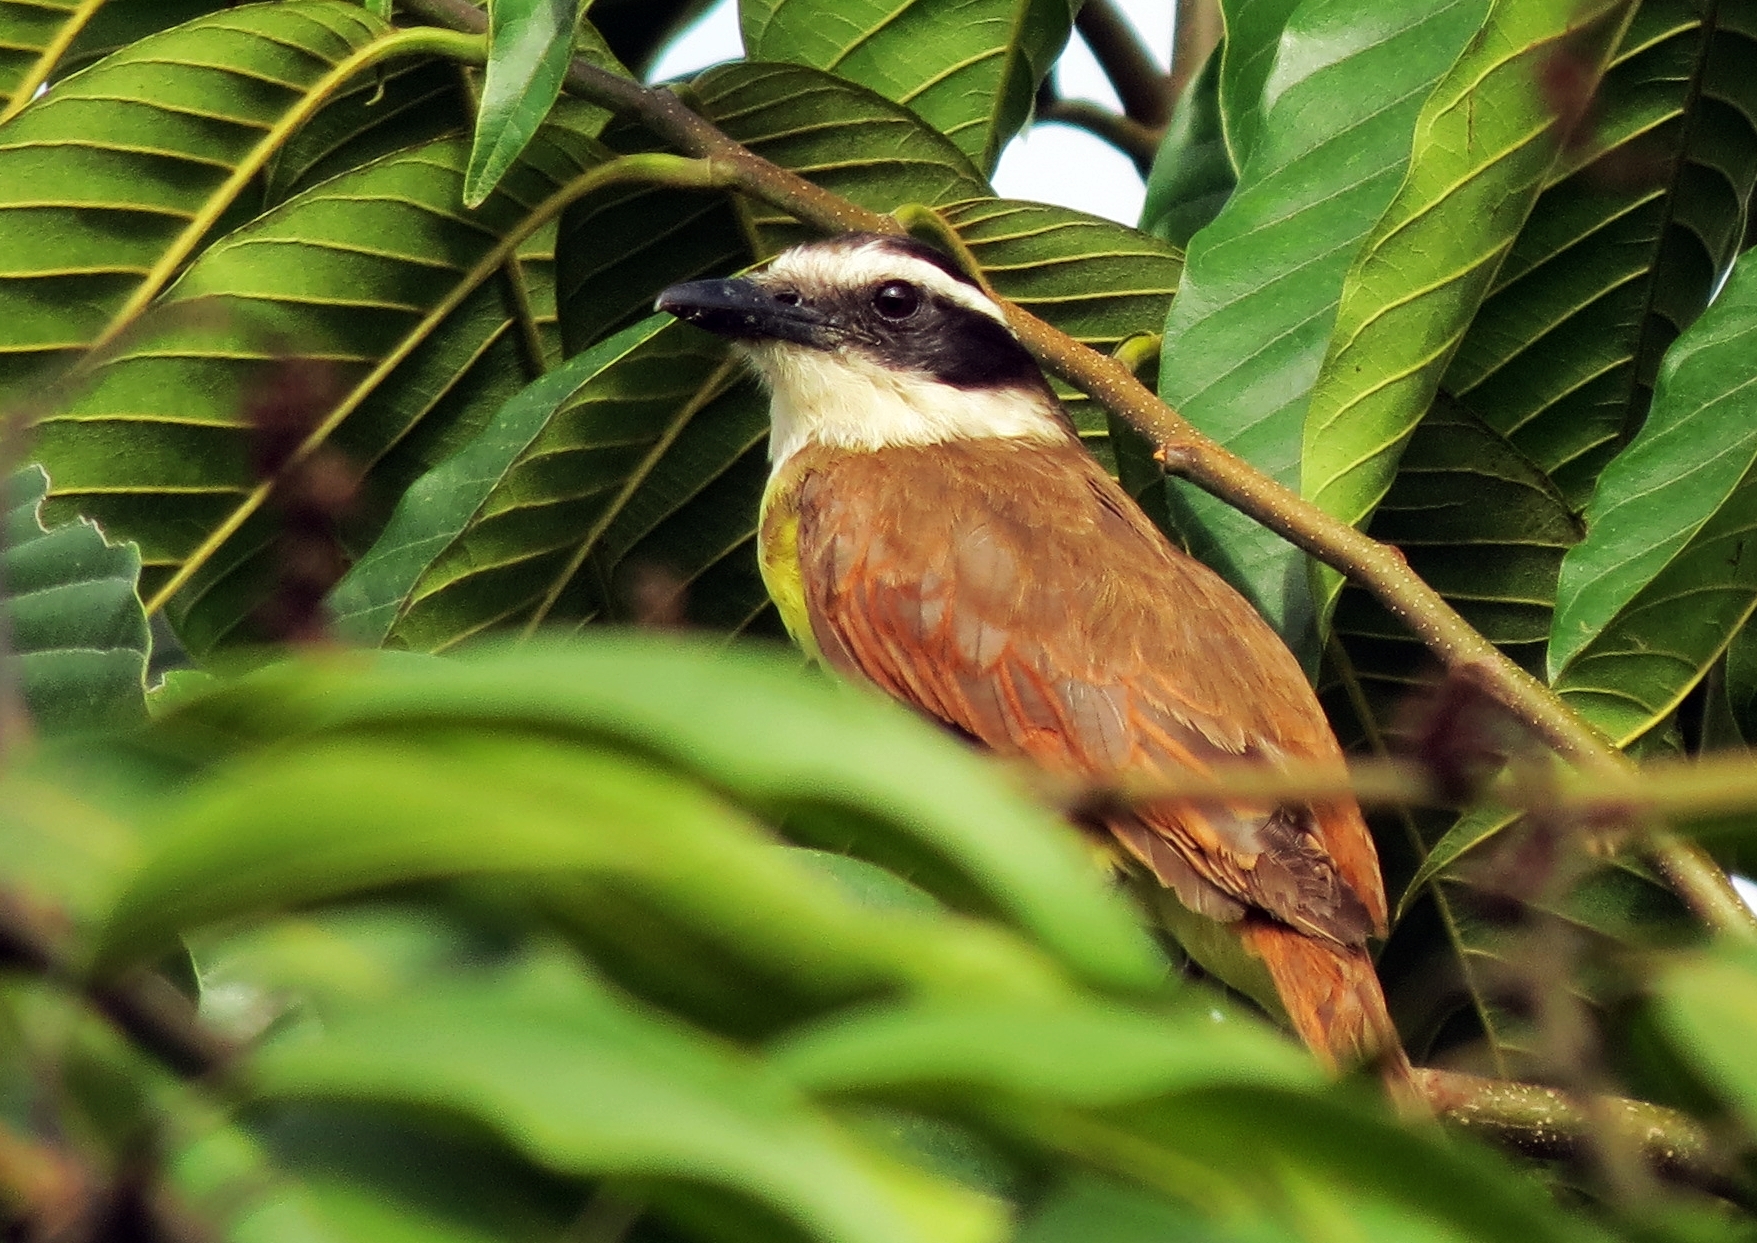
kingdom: Animalia
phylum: Chordata
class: Aves
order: Passeriformes
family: Tyrannidae
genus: Pitangus
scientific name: Pitangus sulphuratus
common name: Great kiskadee
